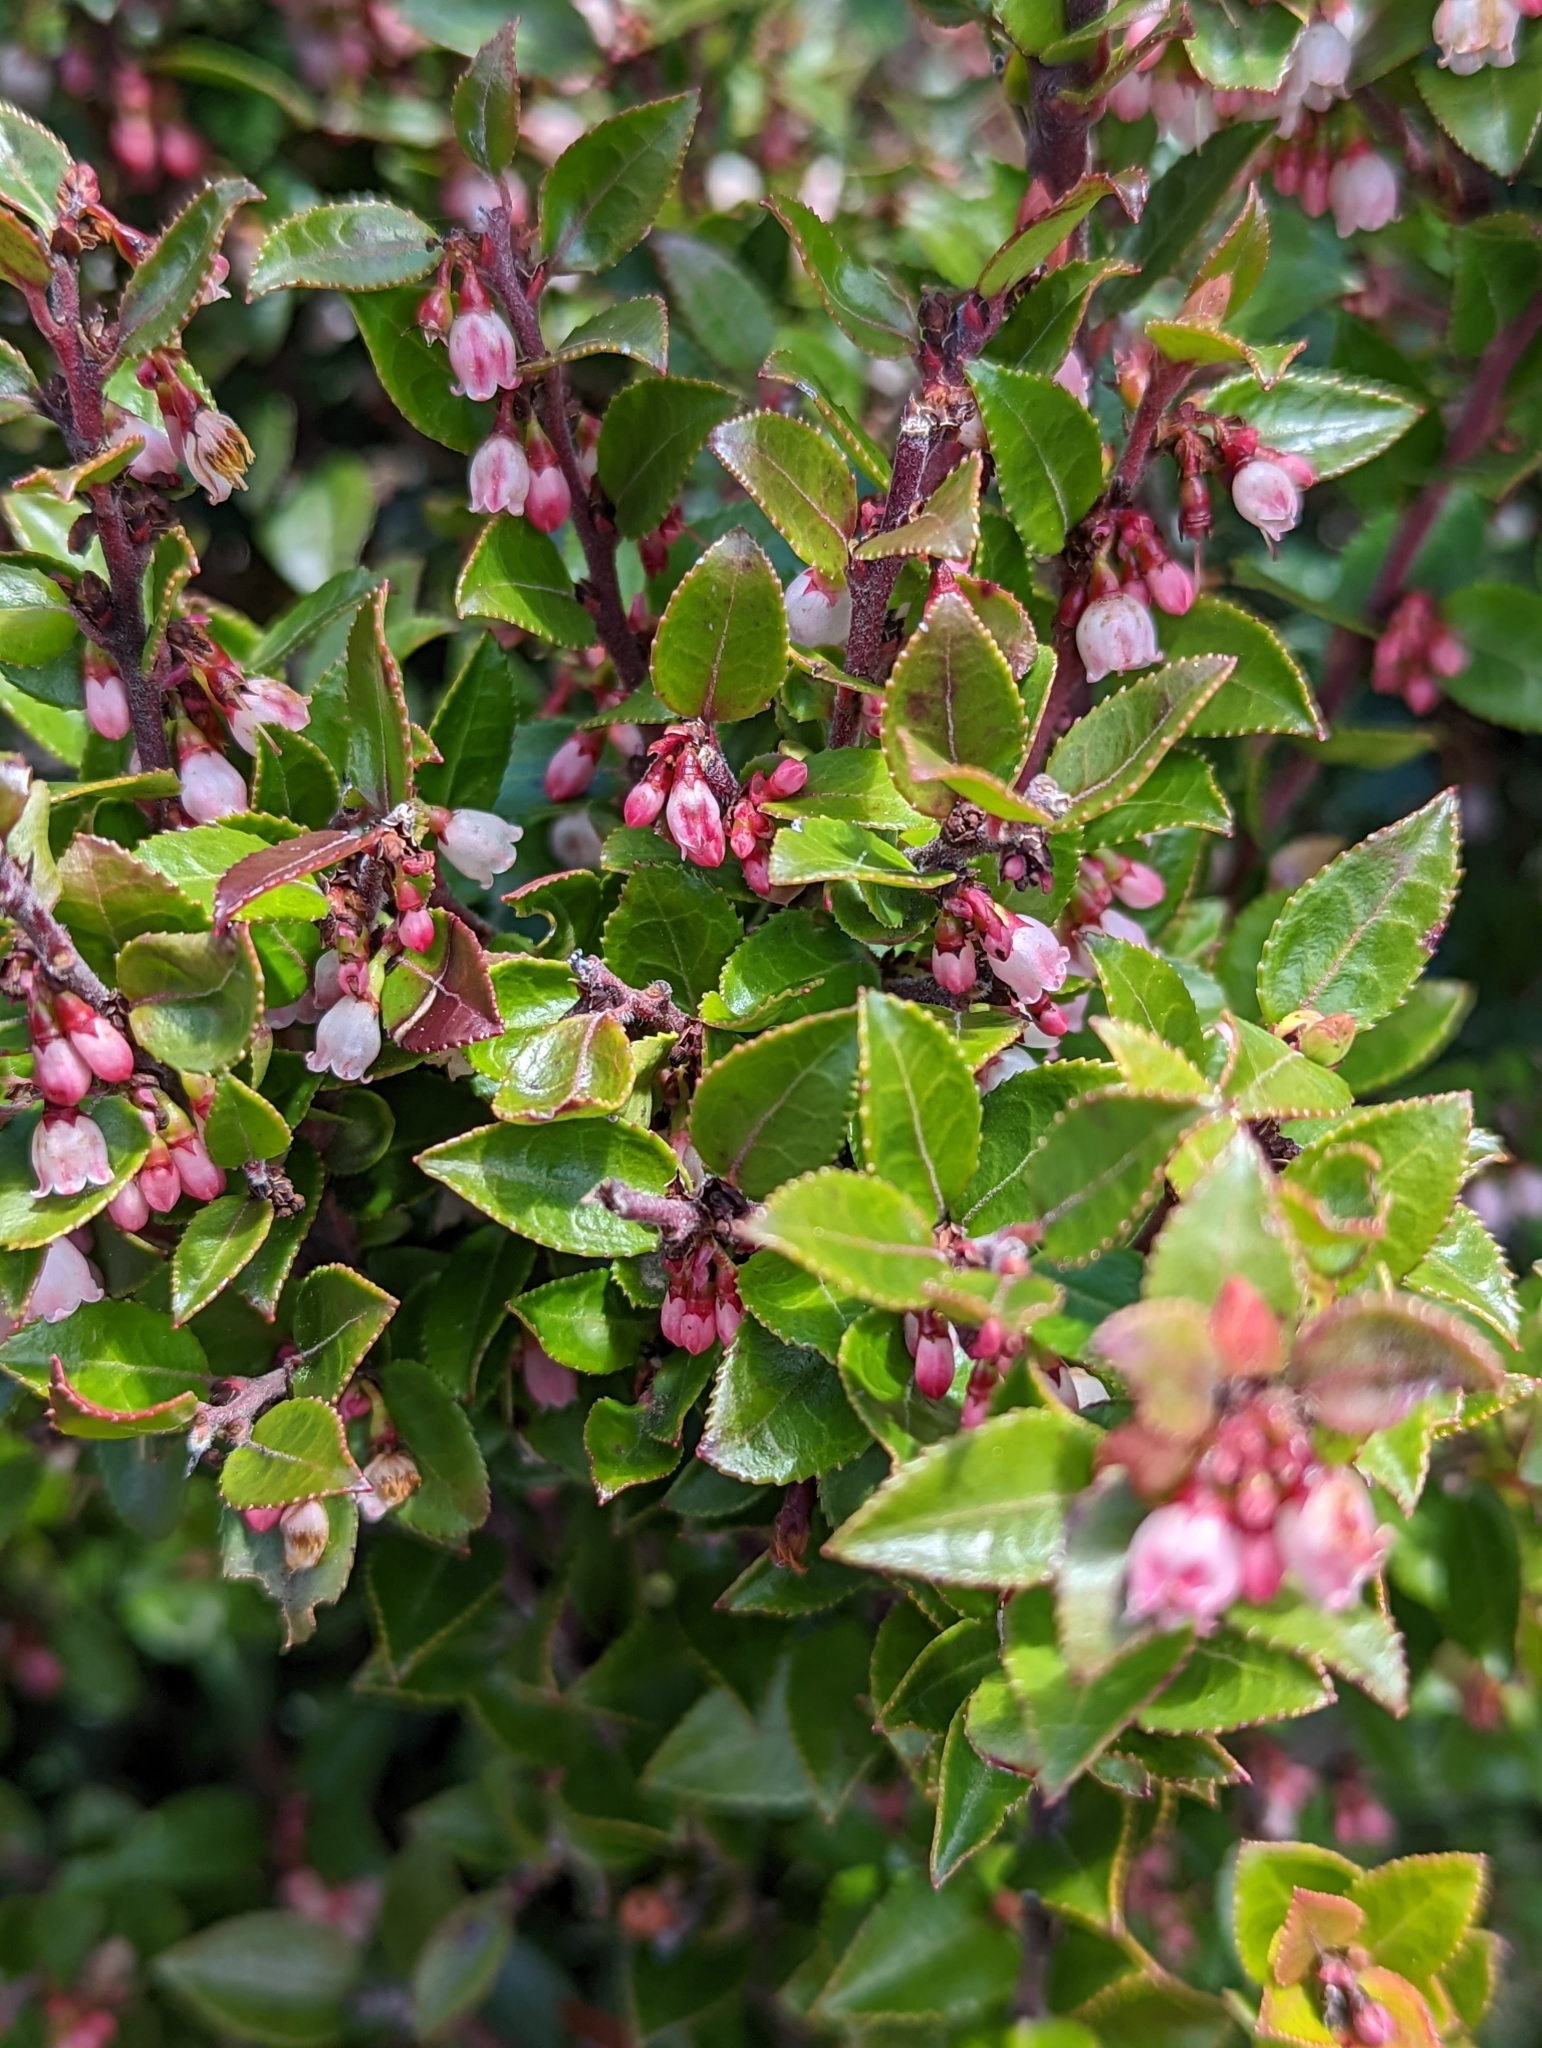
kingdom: Plantae
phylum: Tracheophyta
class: Magnoliopsida
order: Ericales
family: Ericaceae
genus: Vaccinium
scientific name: Vaccinium ovatum
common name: California-huckleberry
